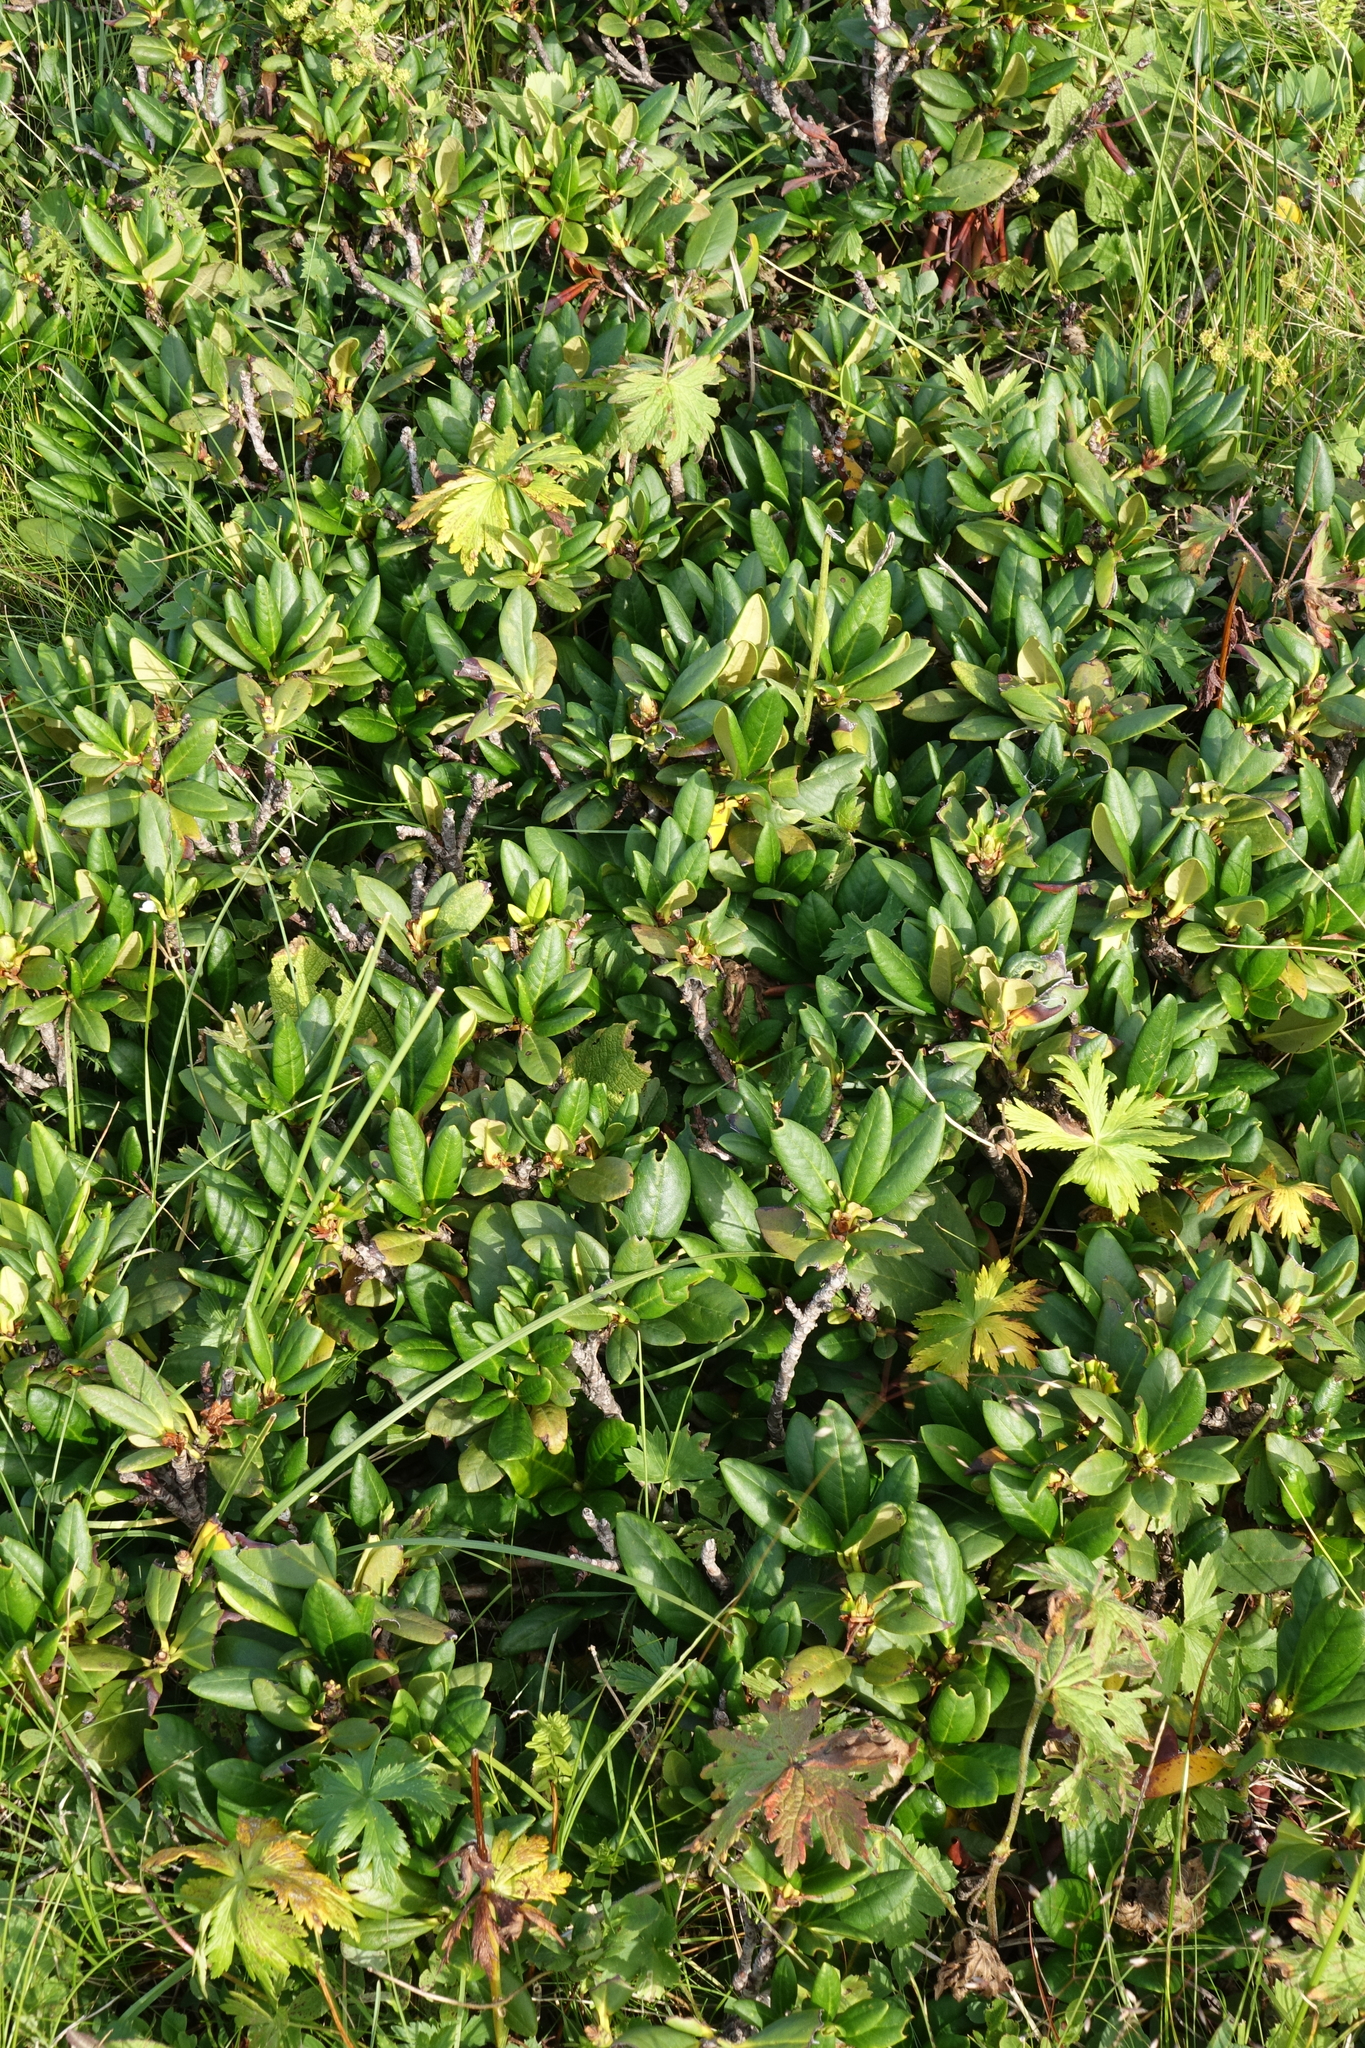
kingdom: Plantae
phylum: Tracheophyta
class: Magnoliopsida
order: Ericales
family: Ericaceae
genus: Rhododendron
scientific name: Rhododendron caucasicum
